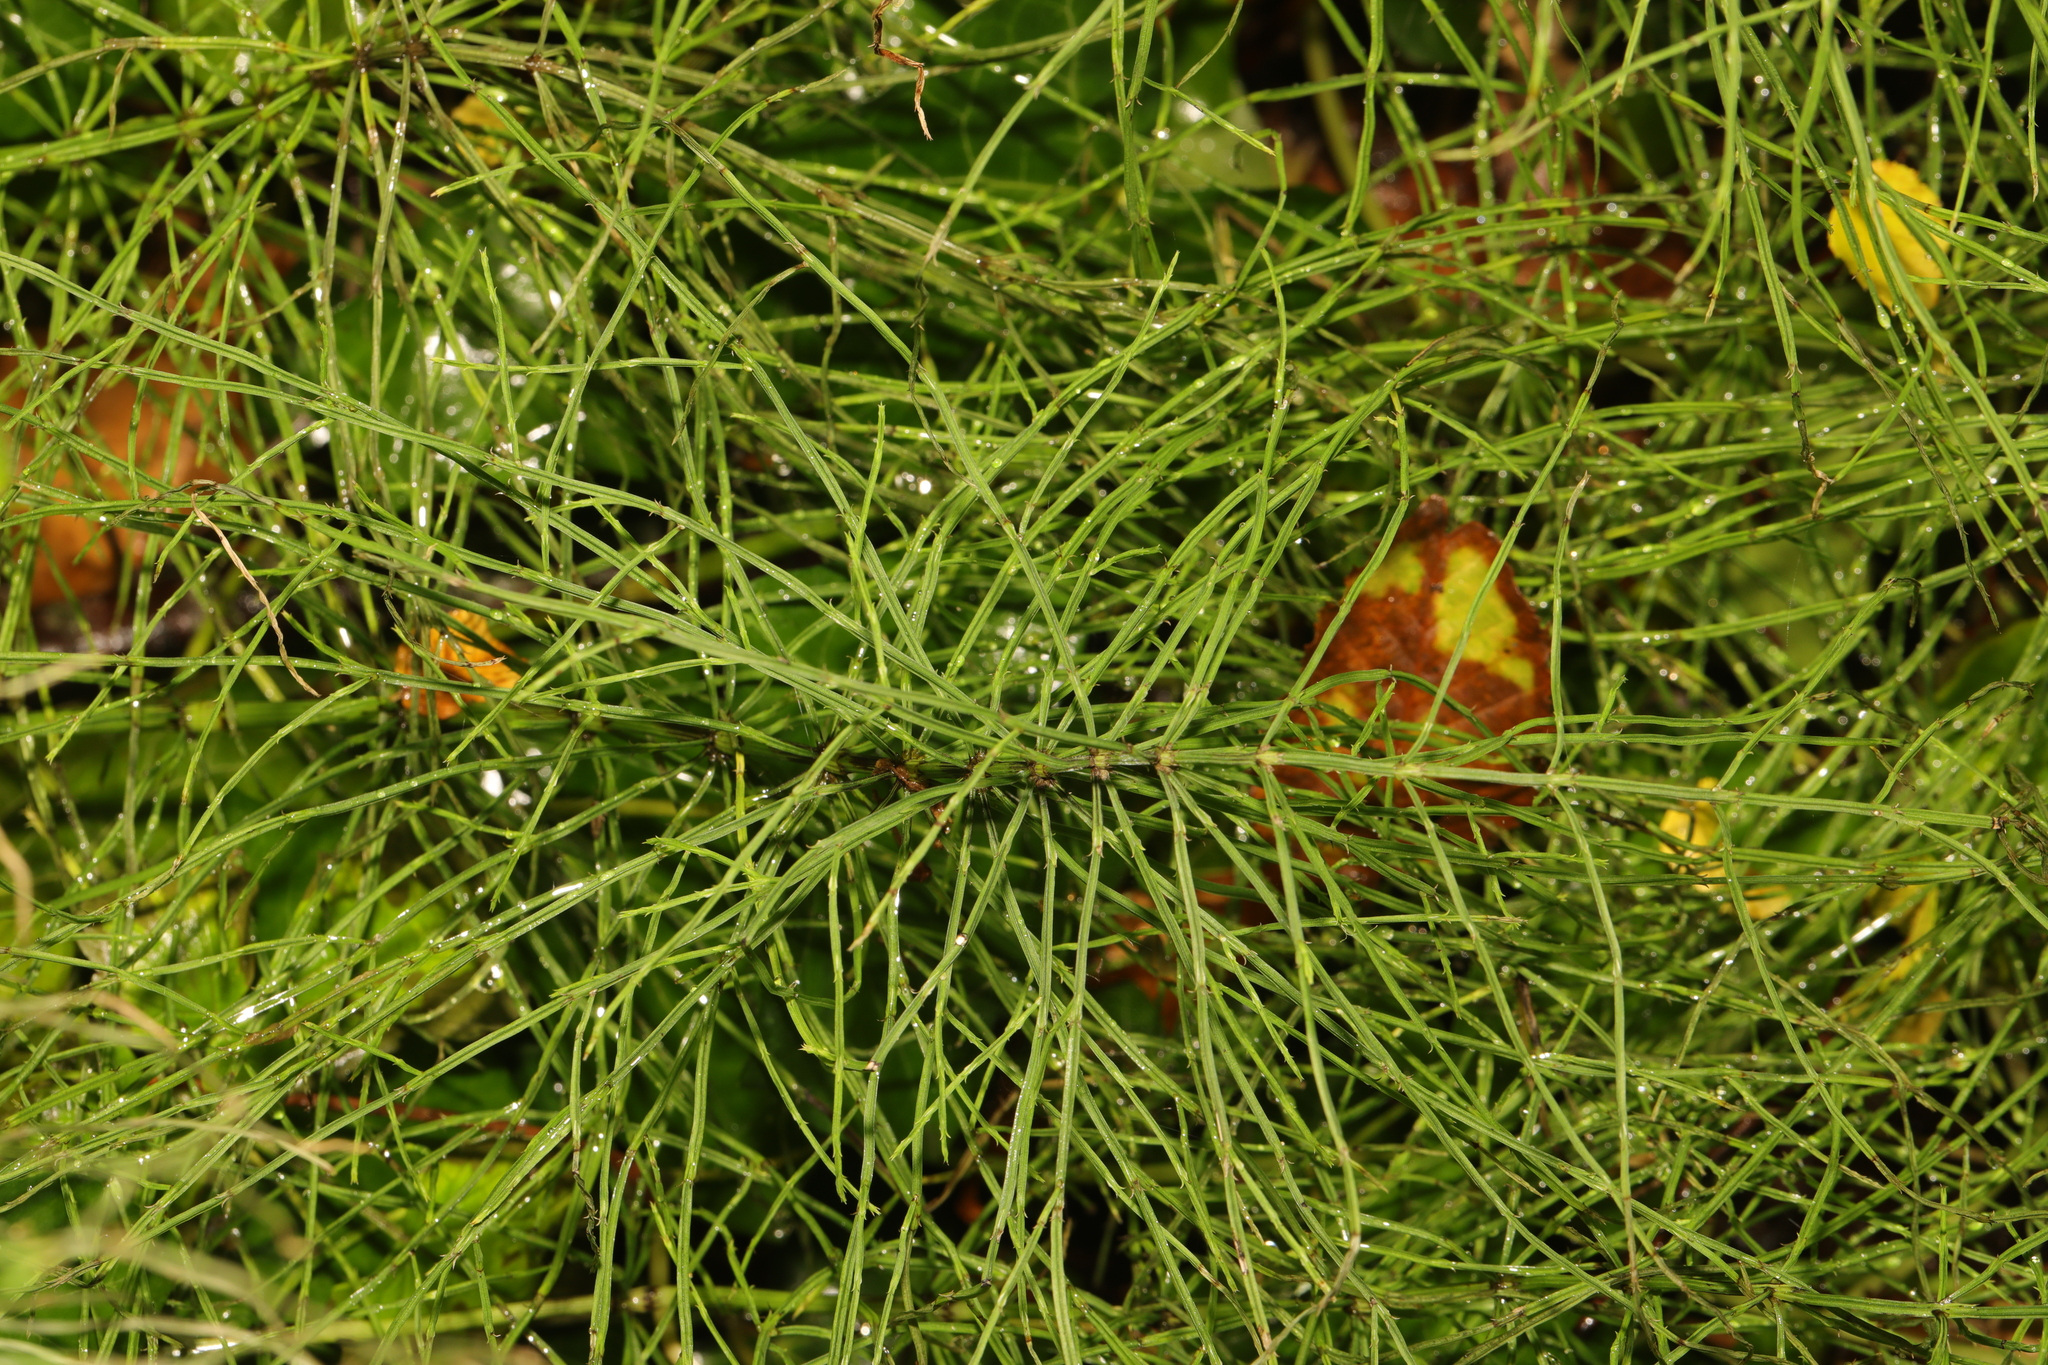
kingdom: Plantae
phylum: Tracheophyta
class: Polypodiopsida
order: Equisetales
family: Equisetaceae
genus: Equisetum
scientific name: Equisetum arvense
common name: Field horsetail
